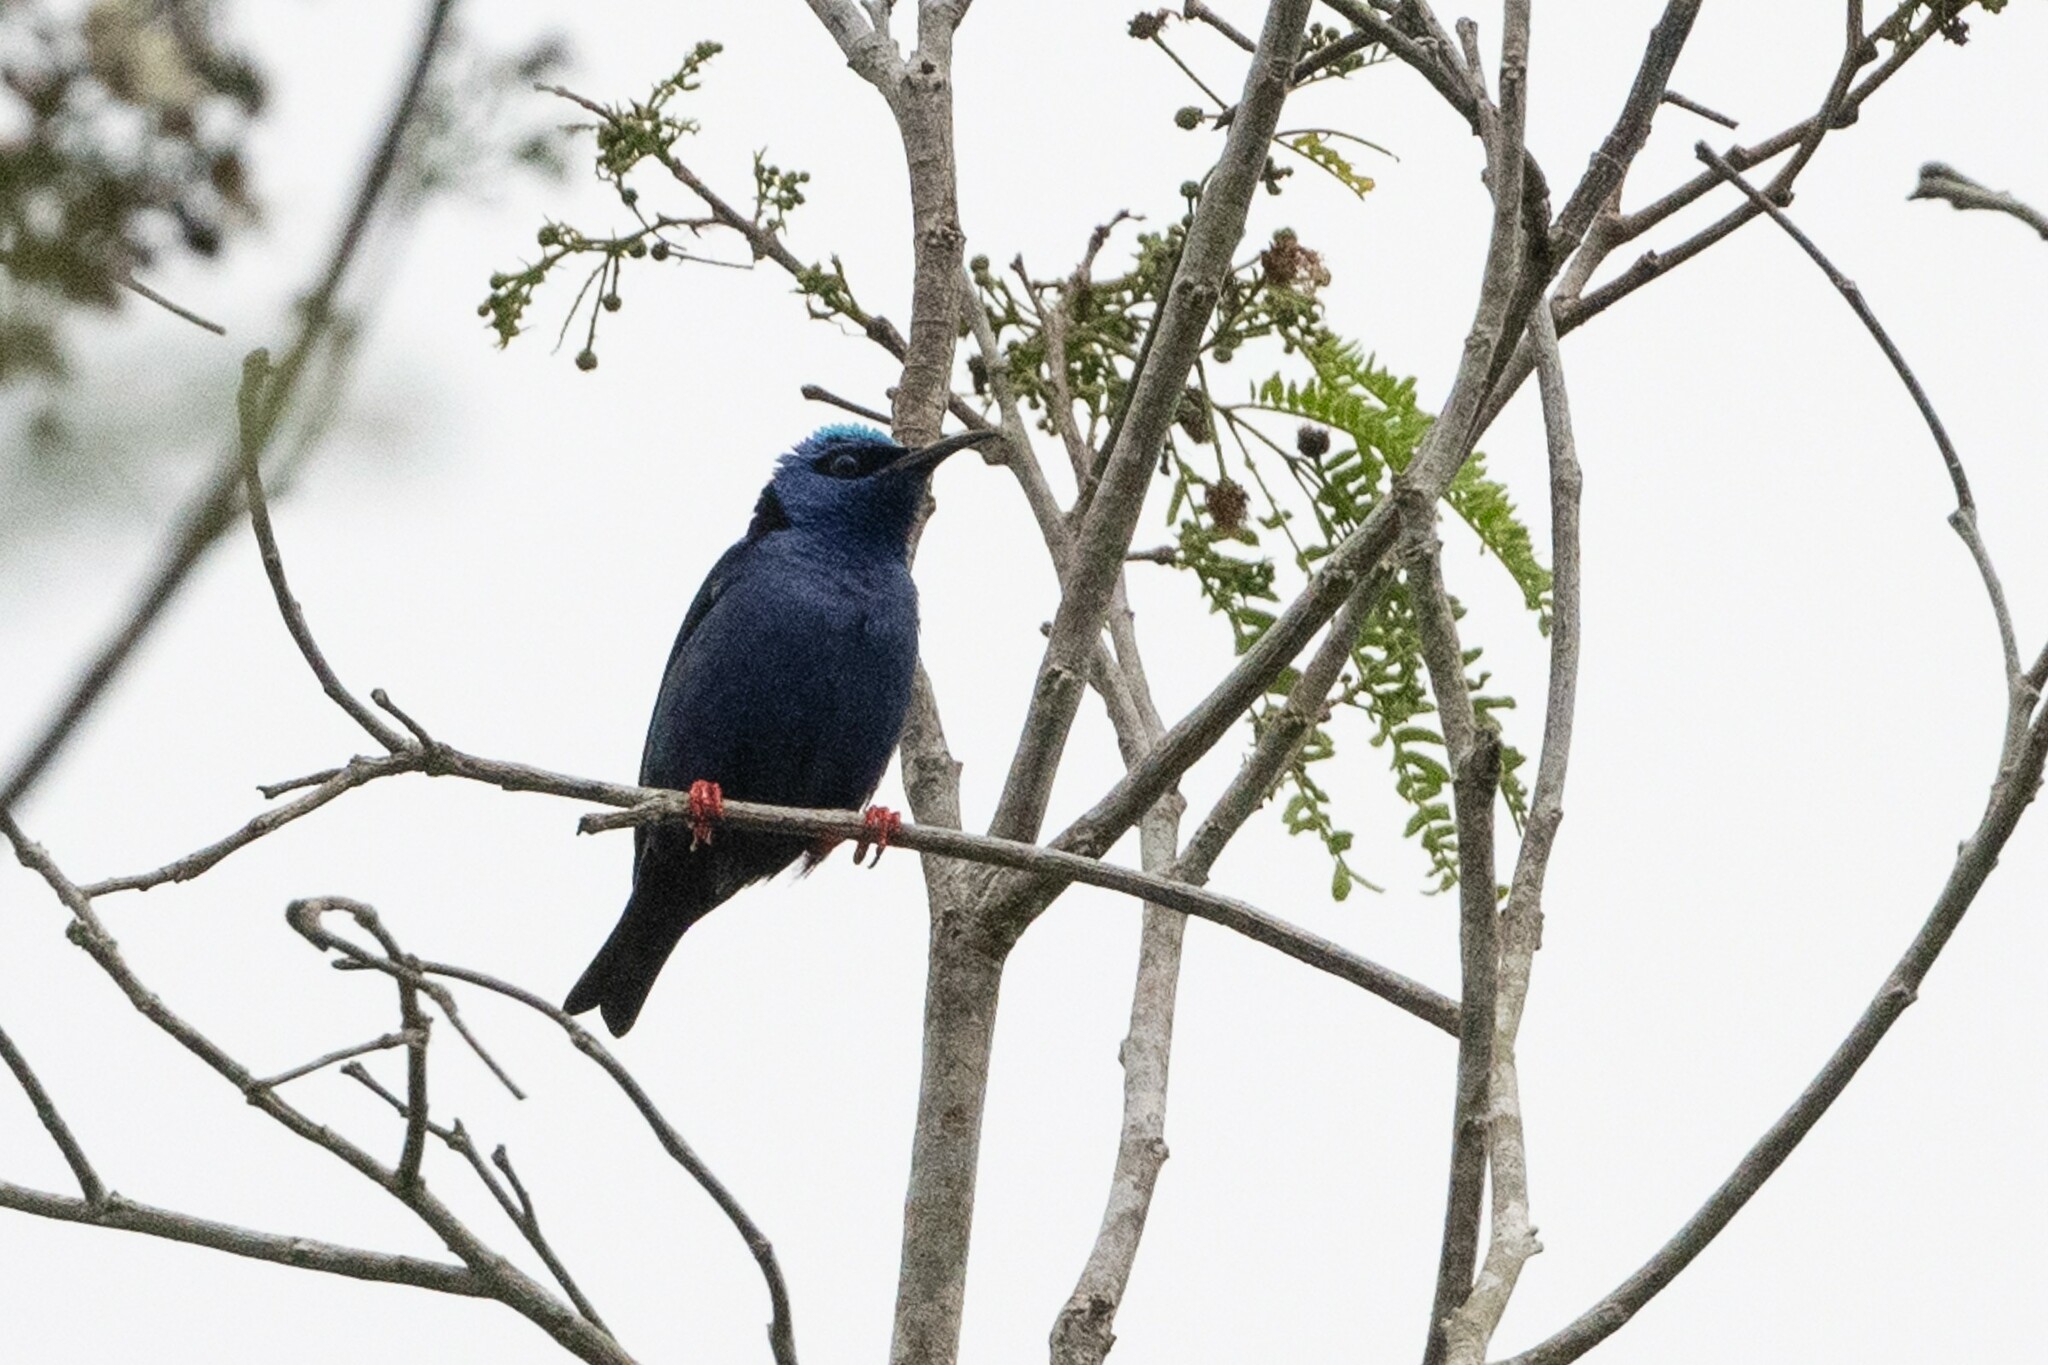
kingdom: Animalia
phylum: Chordata
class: Aves
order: Passeriformes
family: Thraupidae
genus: Cyanerpes
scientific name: Cyanerpes cyaneus
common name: Red-legged honeycreeper
